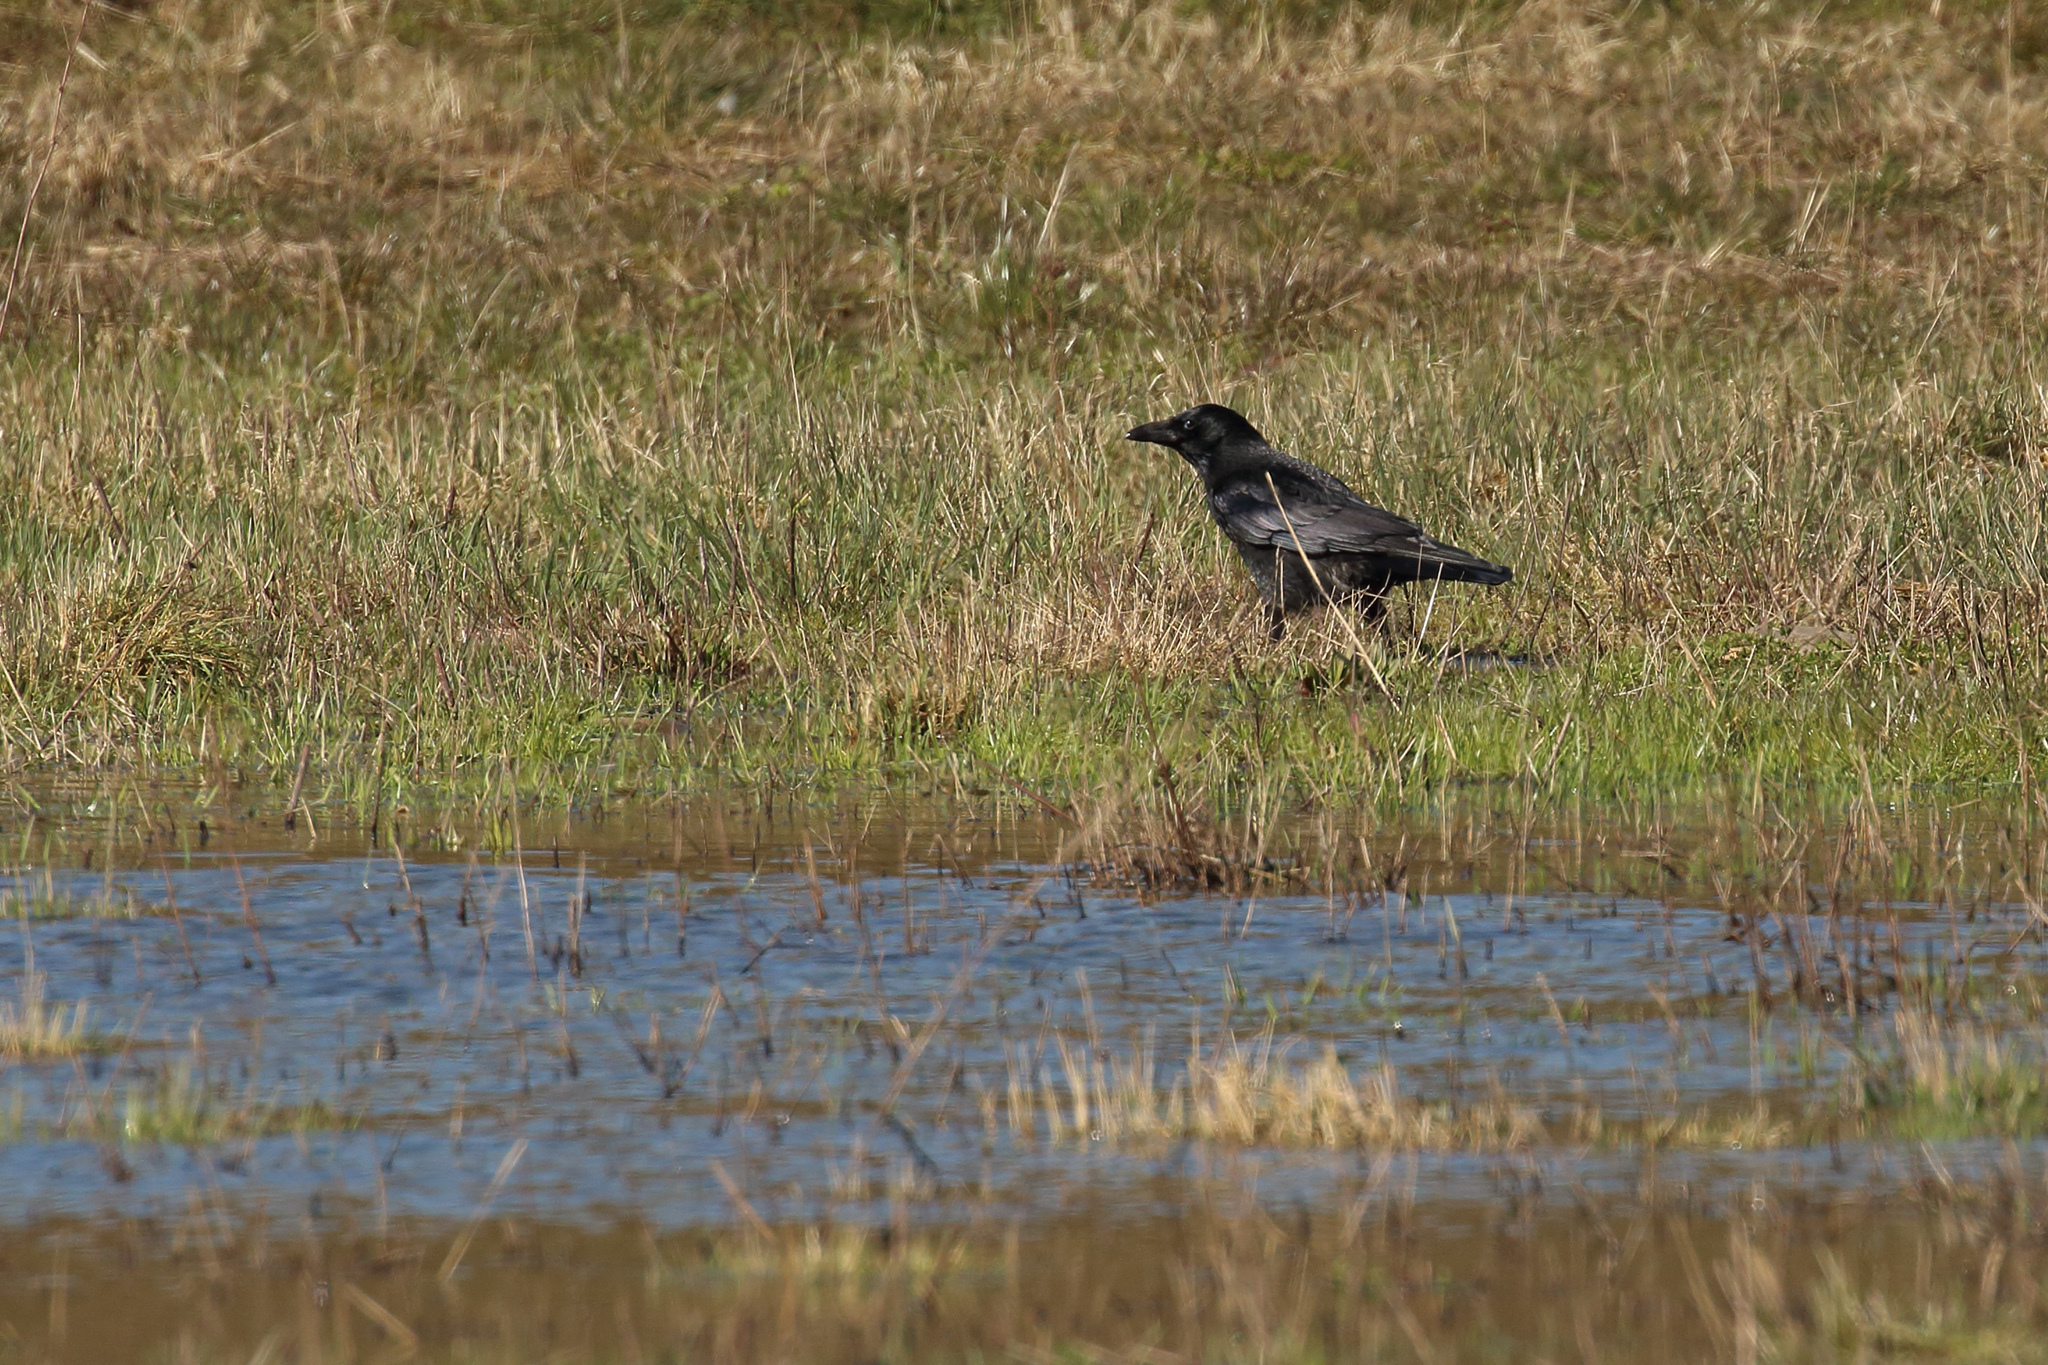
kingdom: Animalia
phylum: Chordata
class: Aves
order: Passeriformes
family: Corvidae
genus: Corvus
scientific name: Corvus corone
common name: Carrion crow
